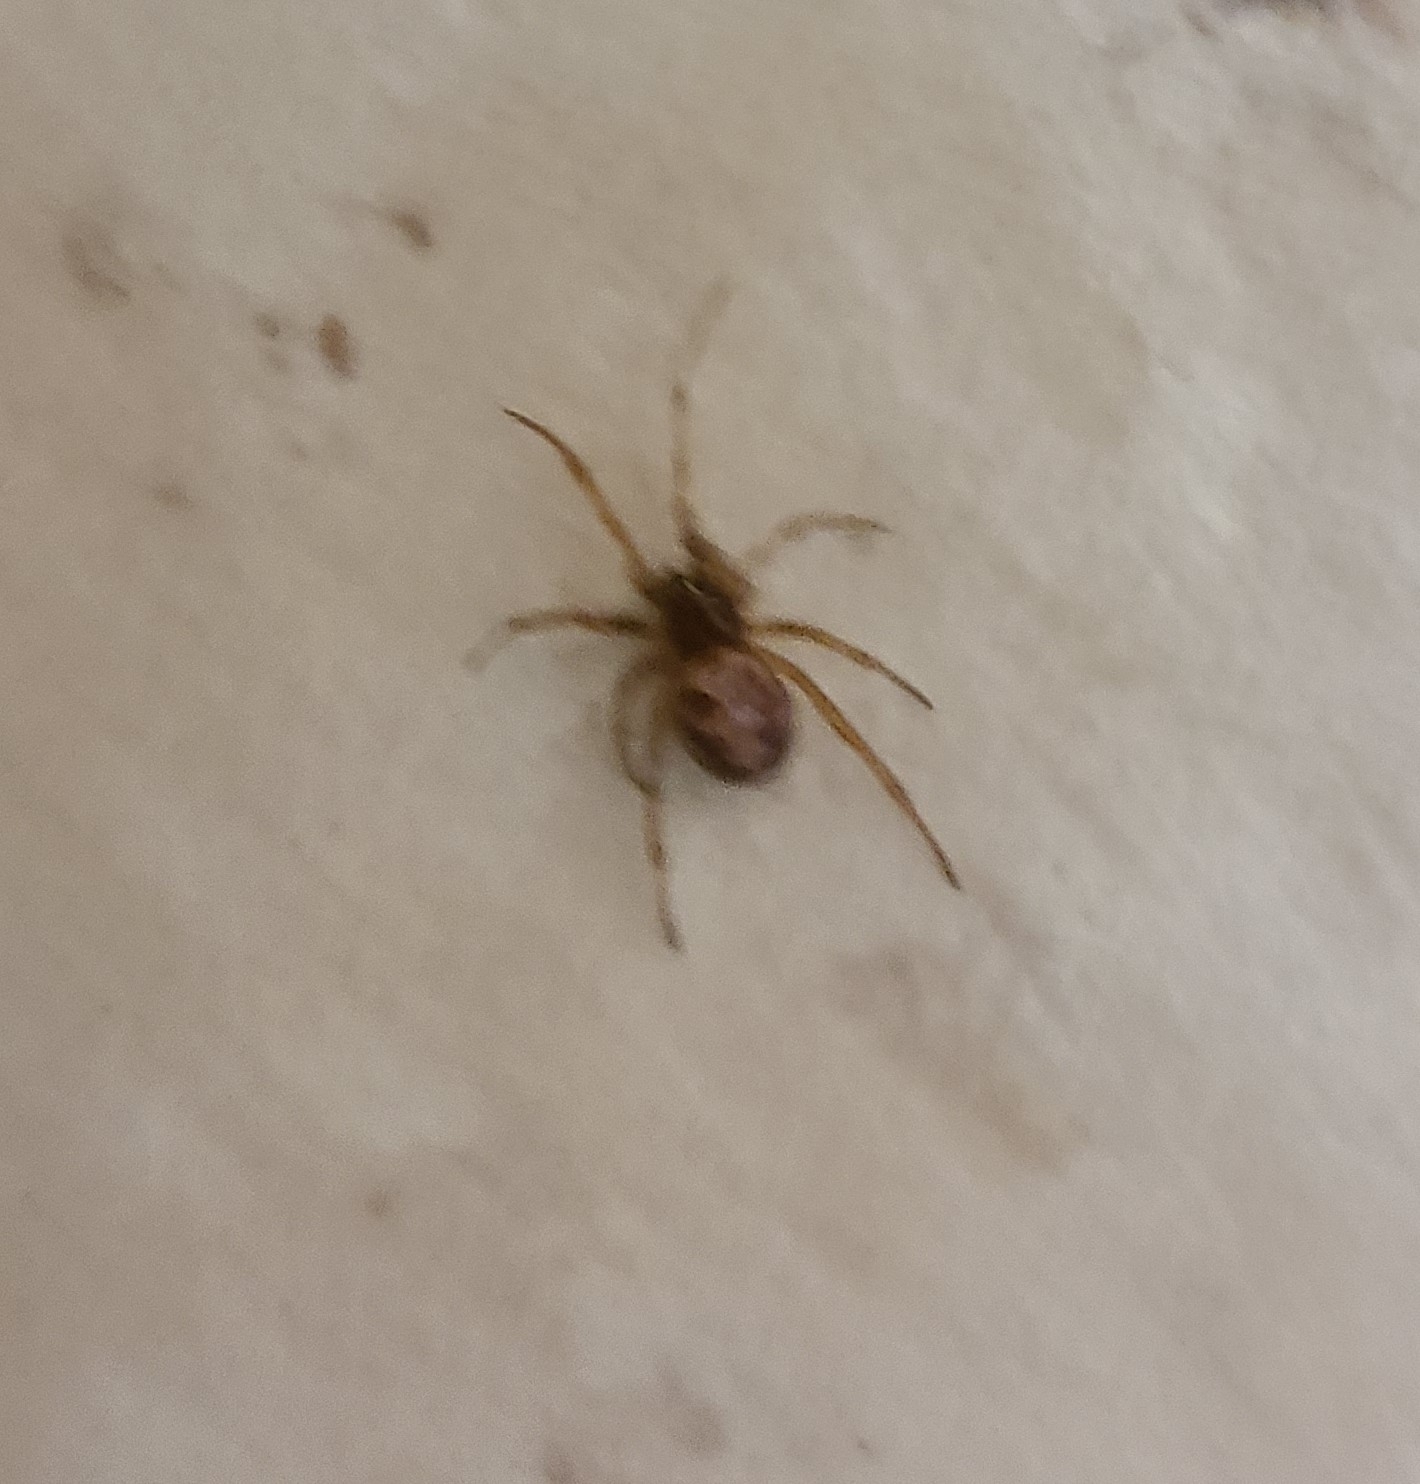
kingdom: Animalia
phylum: Arthropoda
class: Arachnida
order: Araneae
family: Theridiidae
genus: Steatoda
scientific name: Steatoda triangulosa
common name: Triangulate bud spider
